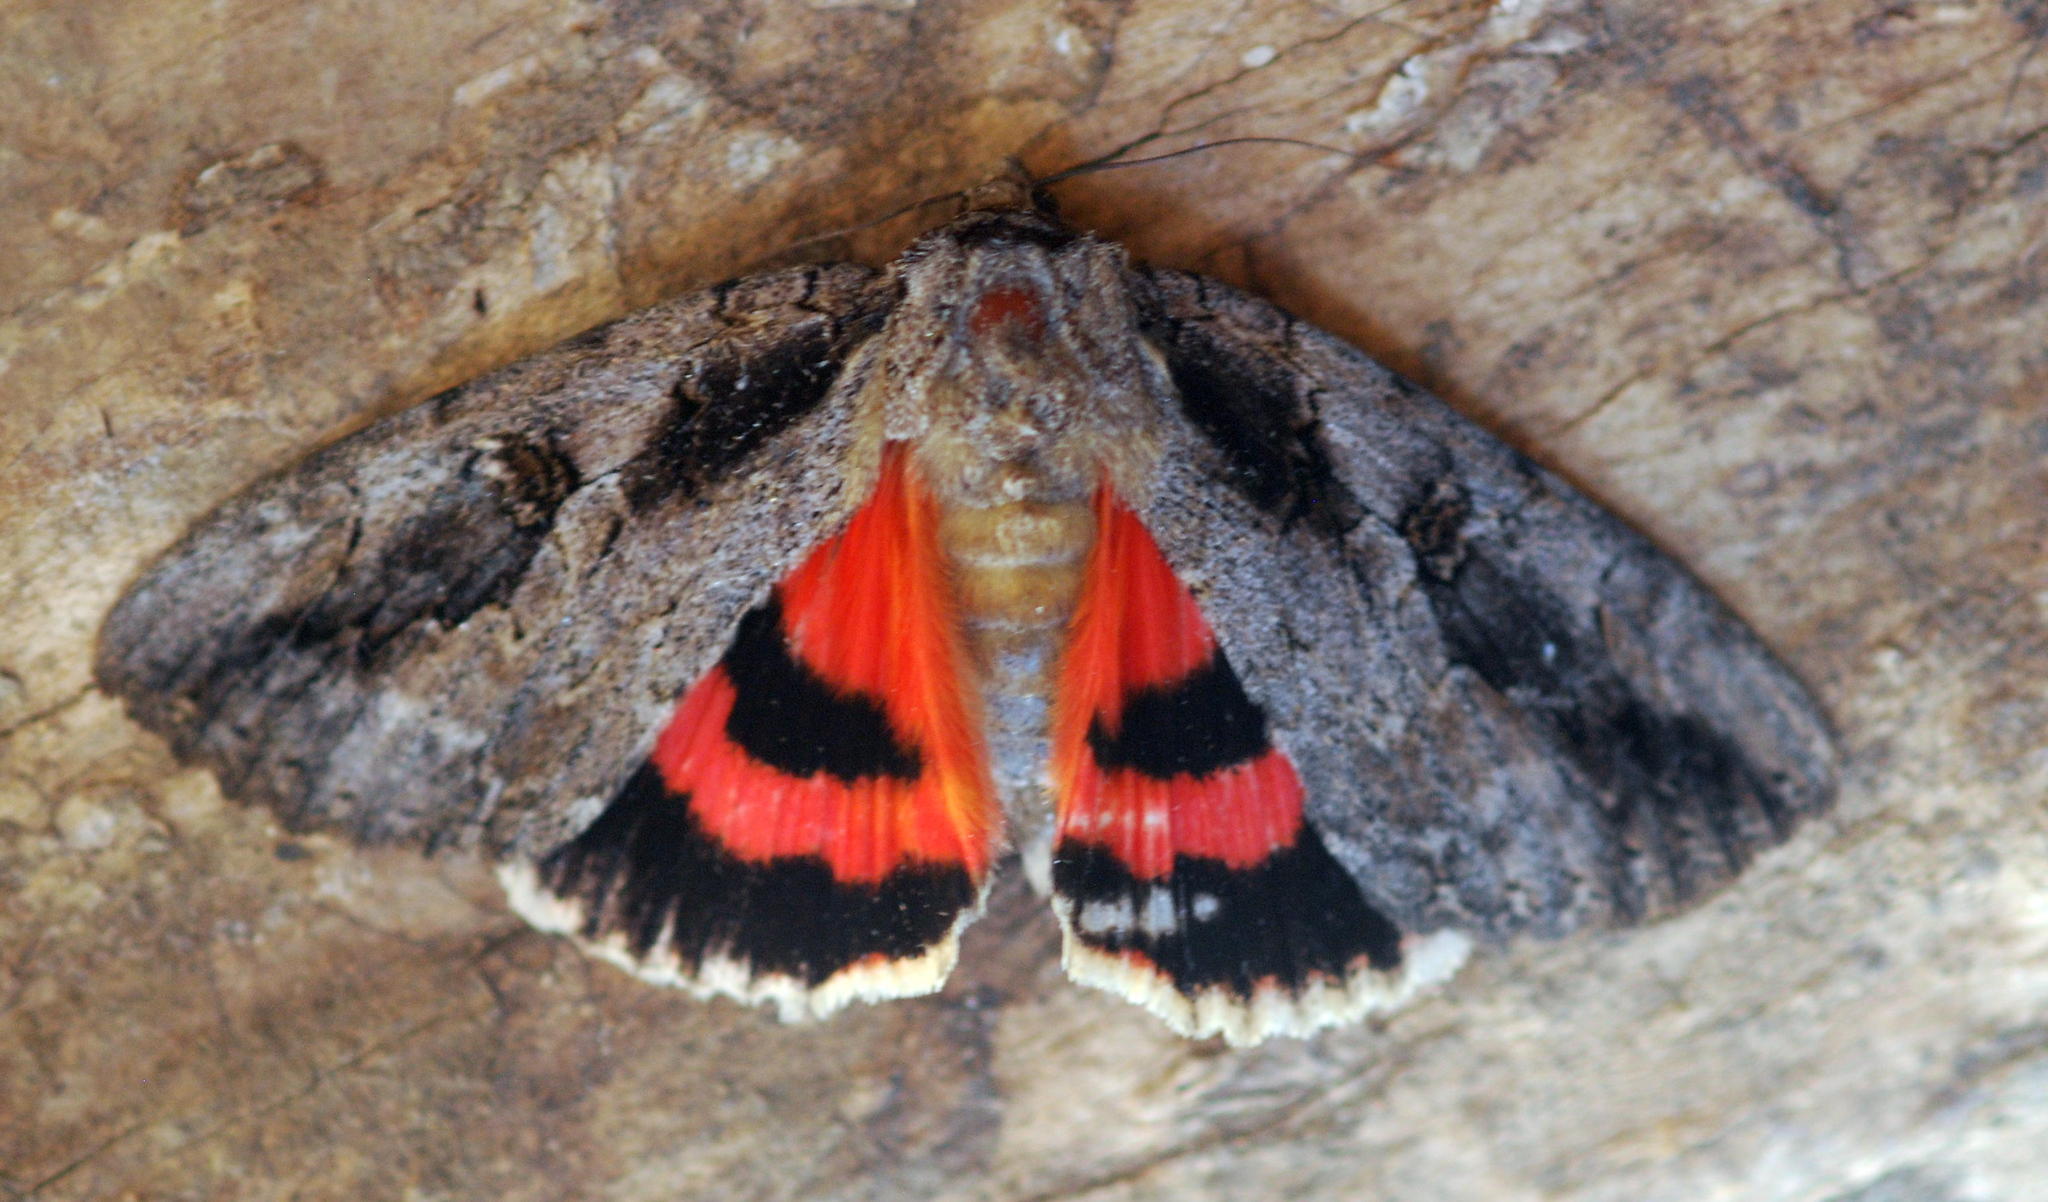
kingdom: Animalia
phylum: Arthropoda
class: Insecta
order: Lepidoptera
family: Erebidae
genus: Catocala
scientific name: Catocala amatrix
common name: Sweetheart underwing
